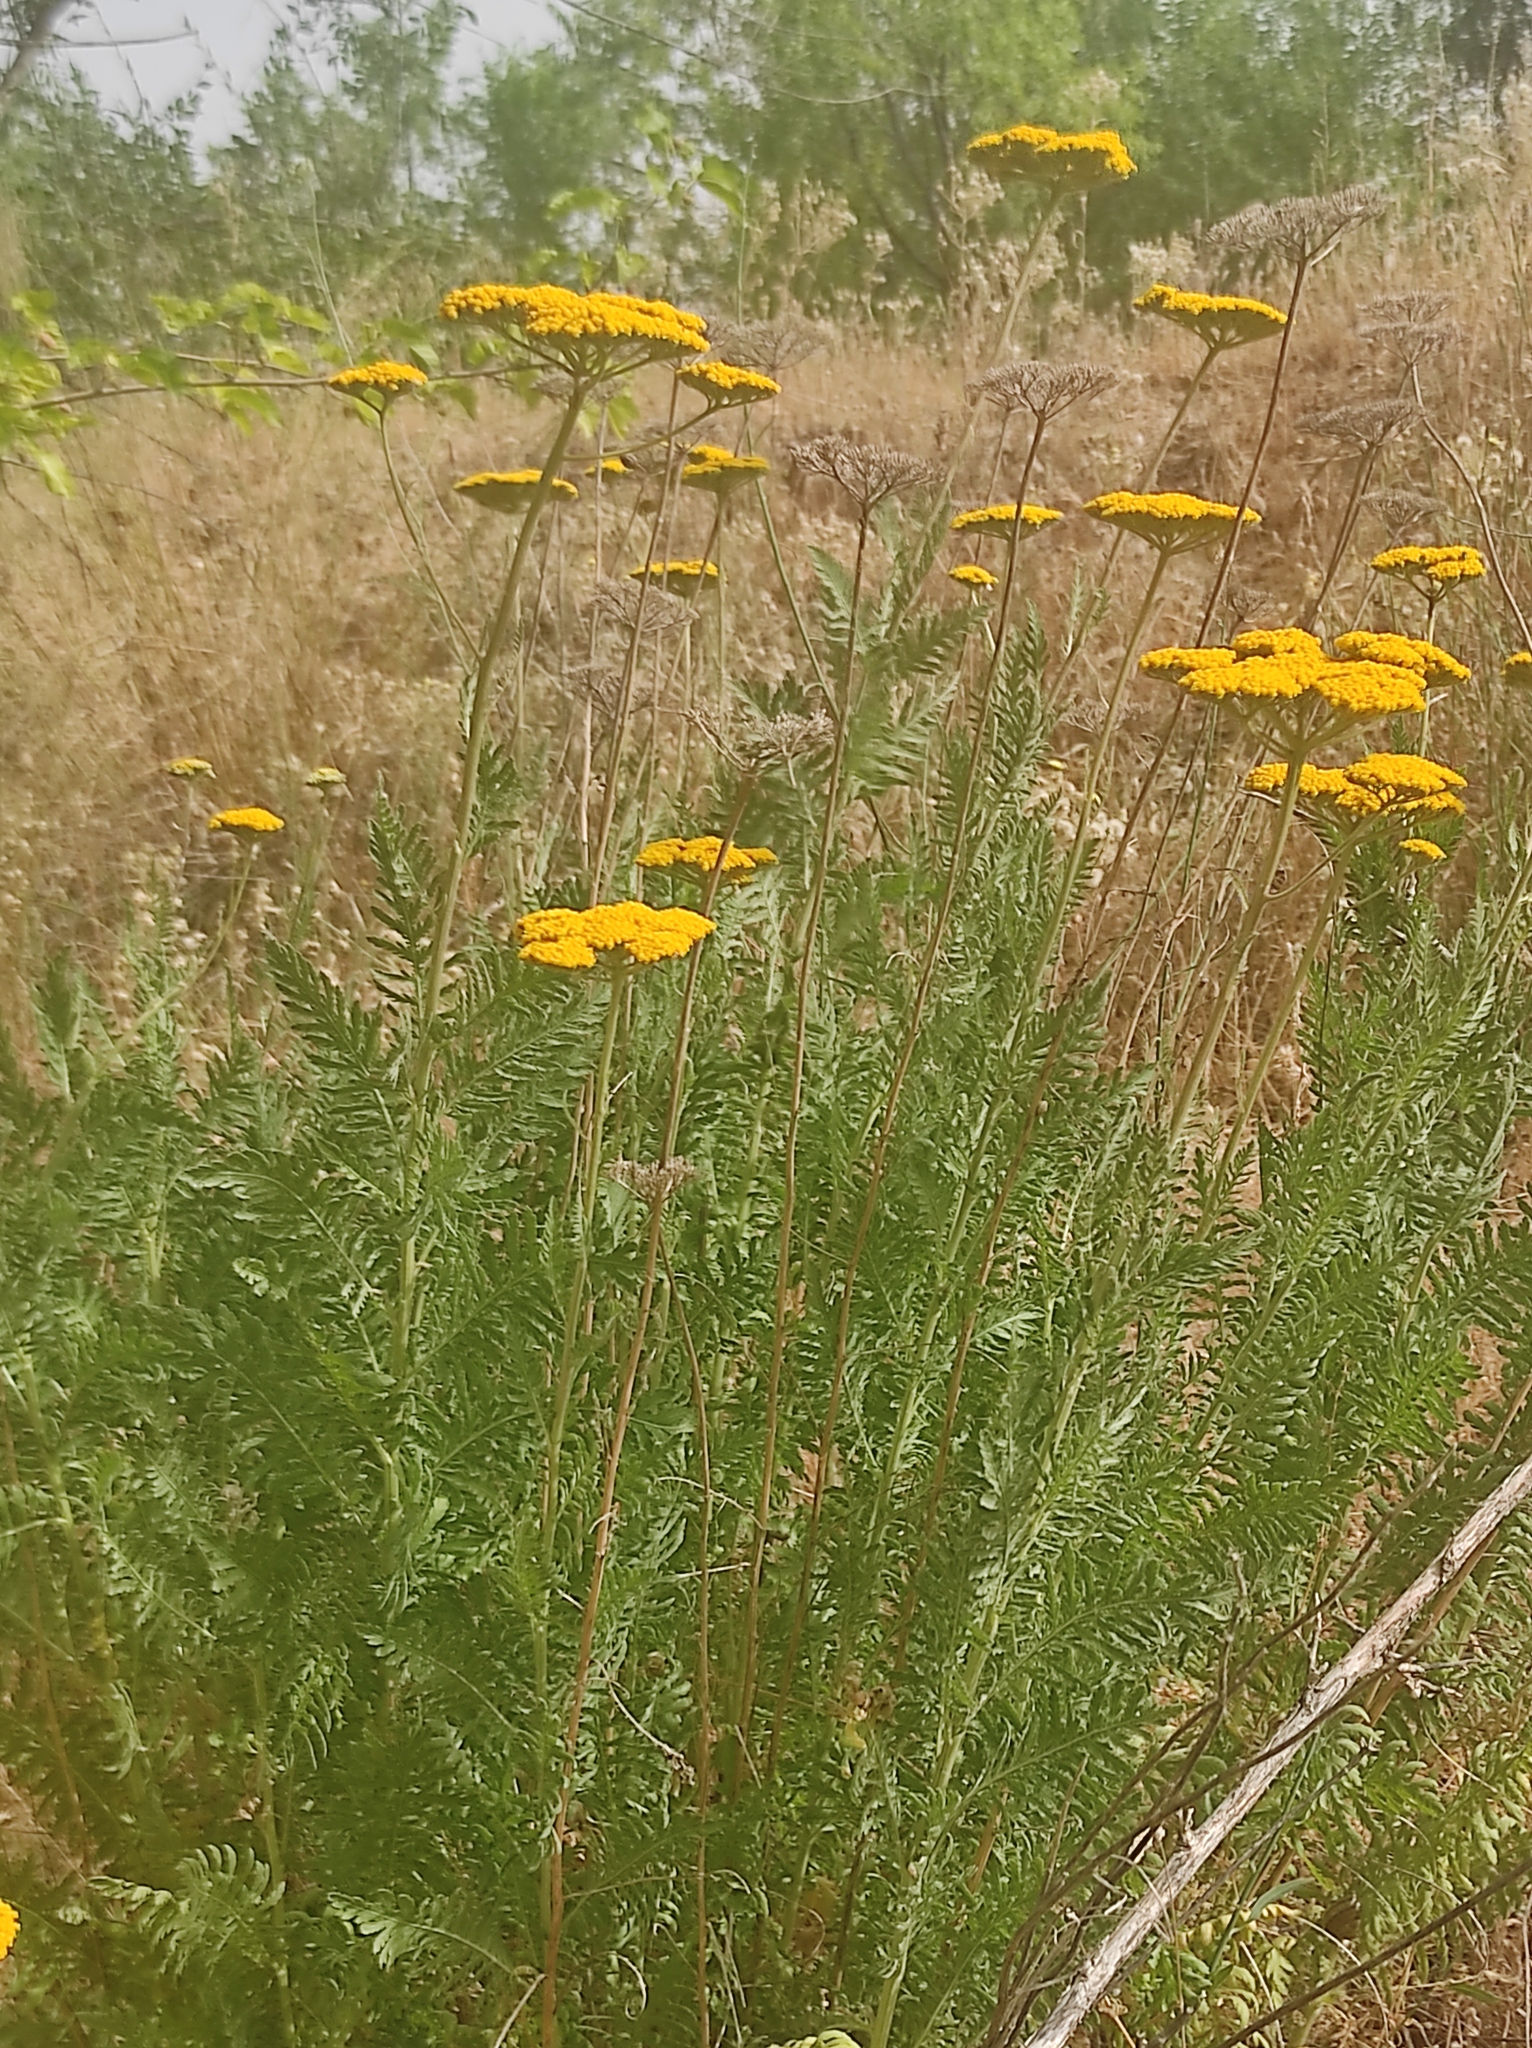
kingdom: Plantae
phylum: Tracheophyta
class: Magnoliopsida
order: Asterales
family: Asteraceae
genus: Achillea
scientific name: Achillea filipendulina
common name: Fernleaf yarrow
